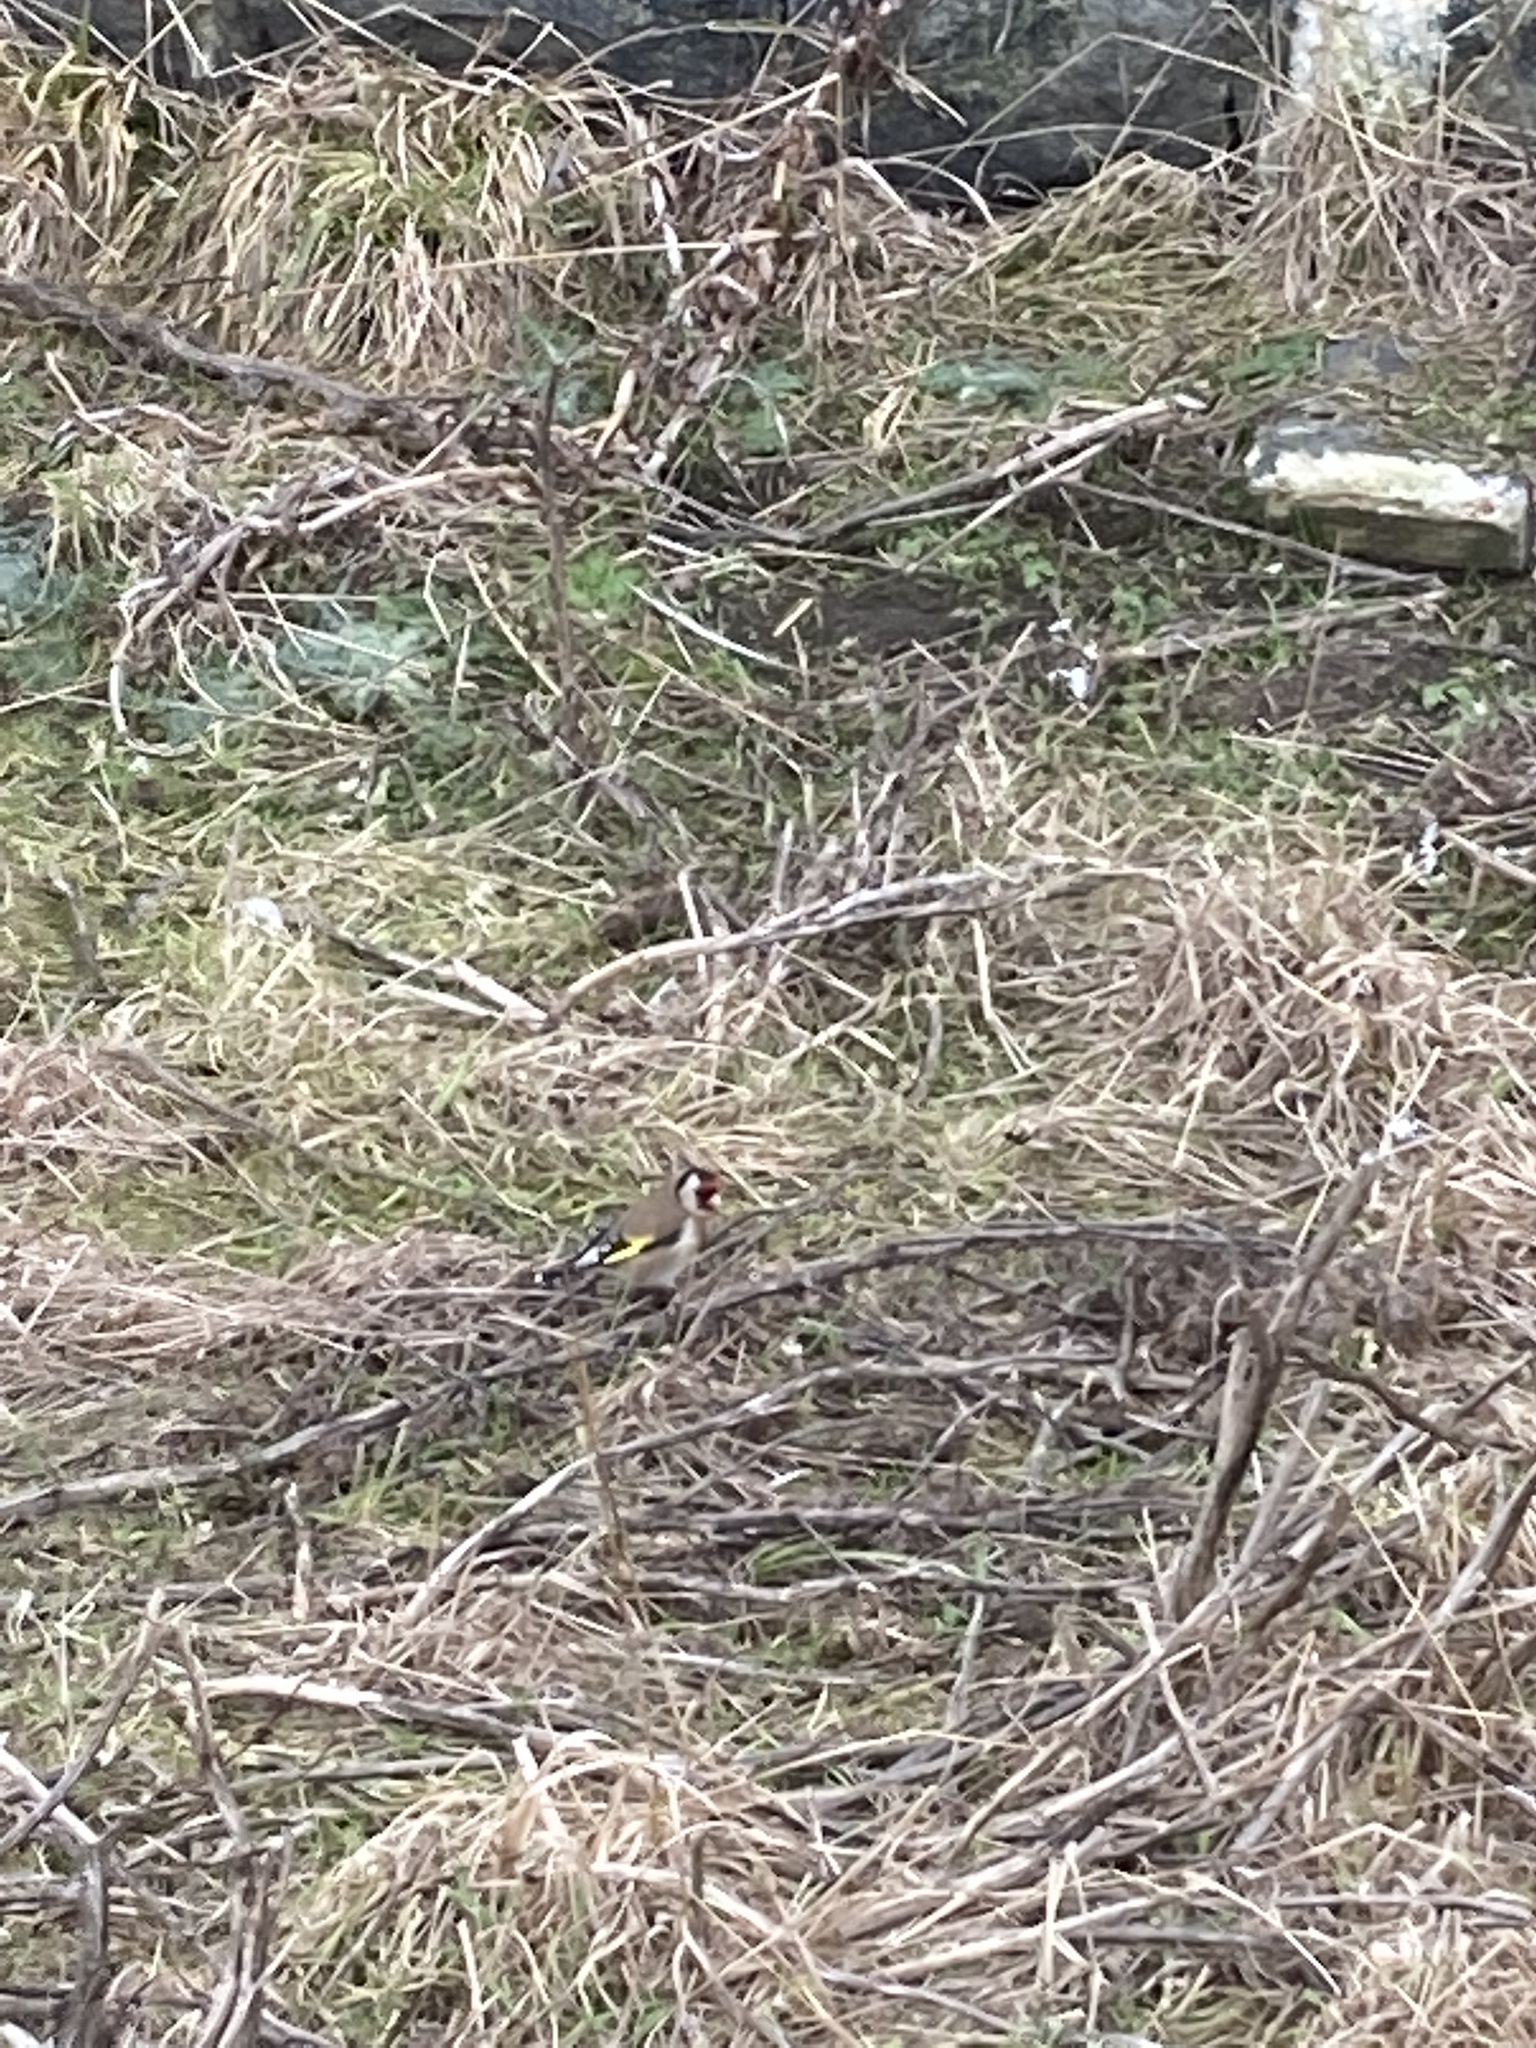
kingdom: Animalia
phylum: Chordata
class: Aves
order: Passeriformes
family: Fringillidae
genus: Carduelis
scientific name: Carduelis carduelis
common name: European goldfinch
